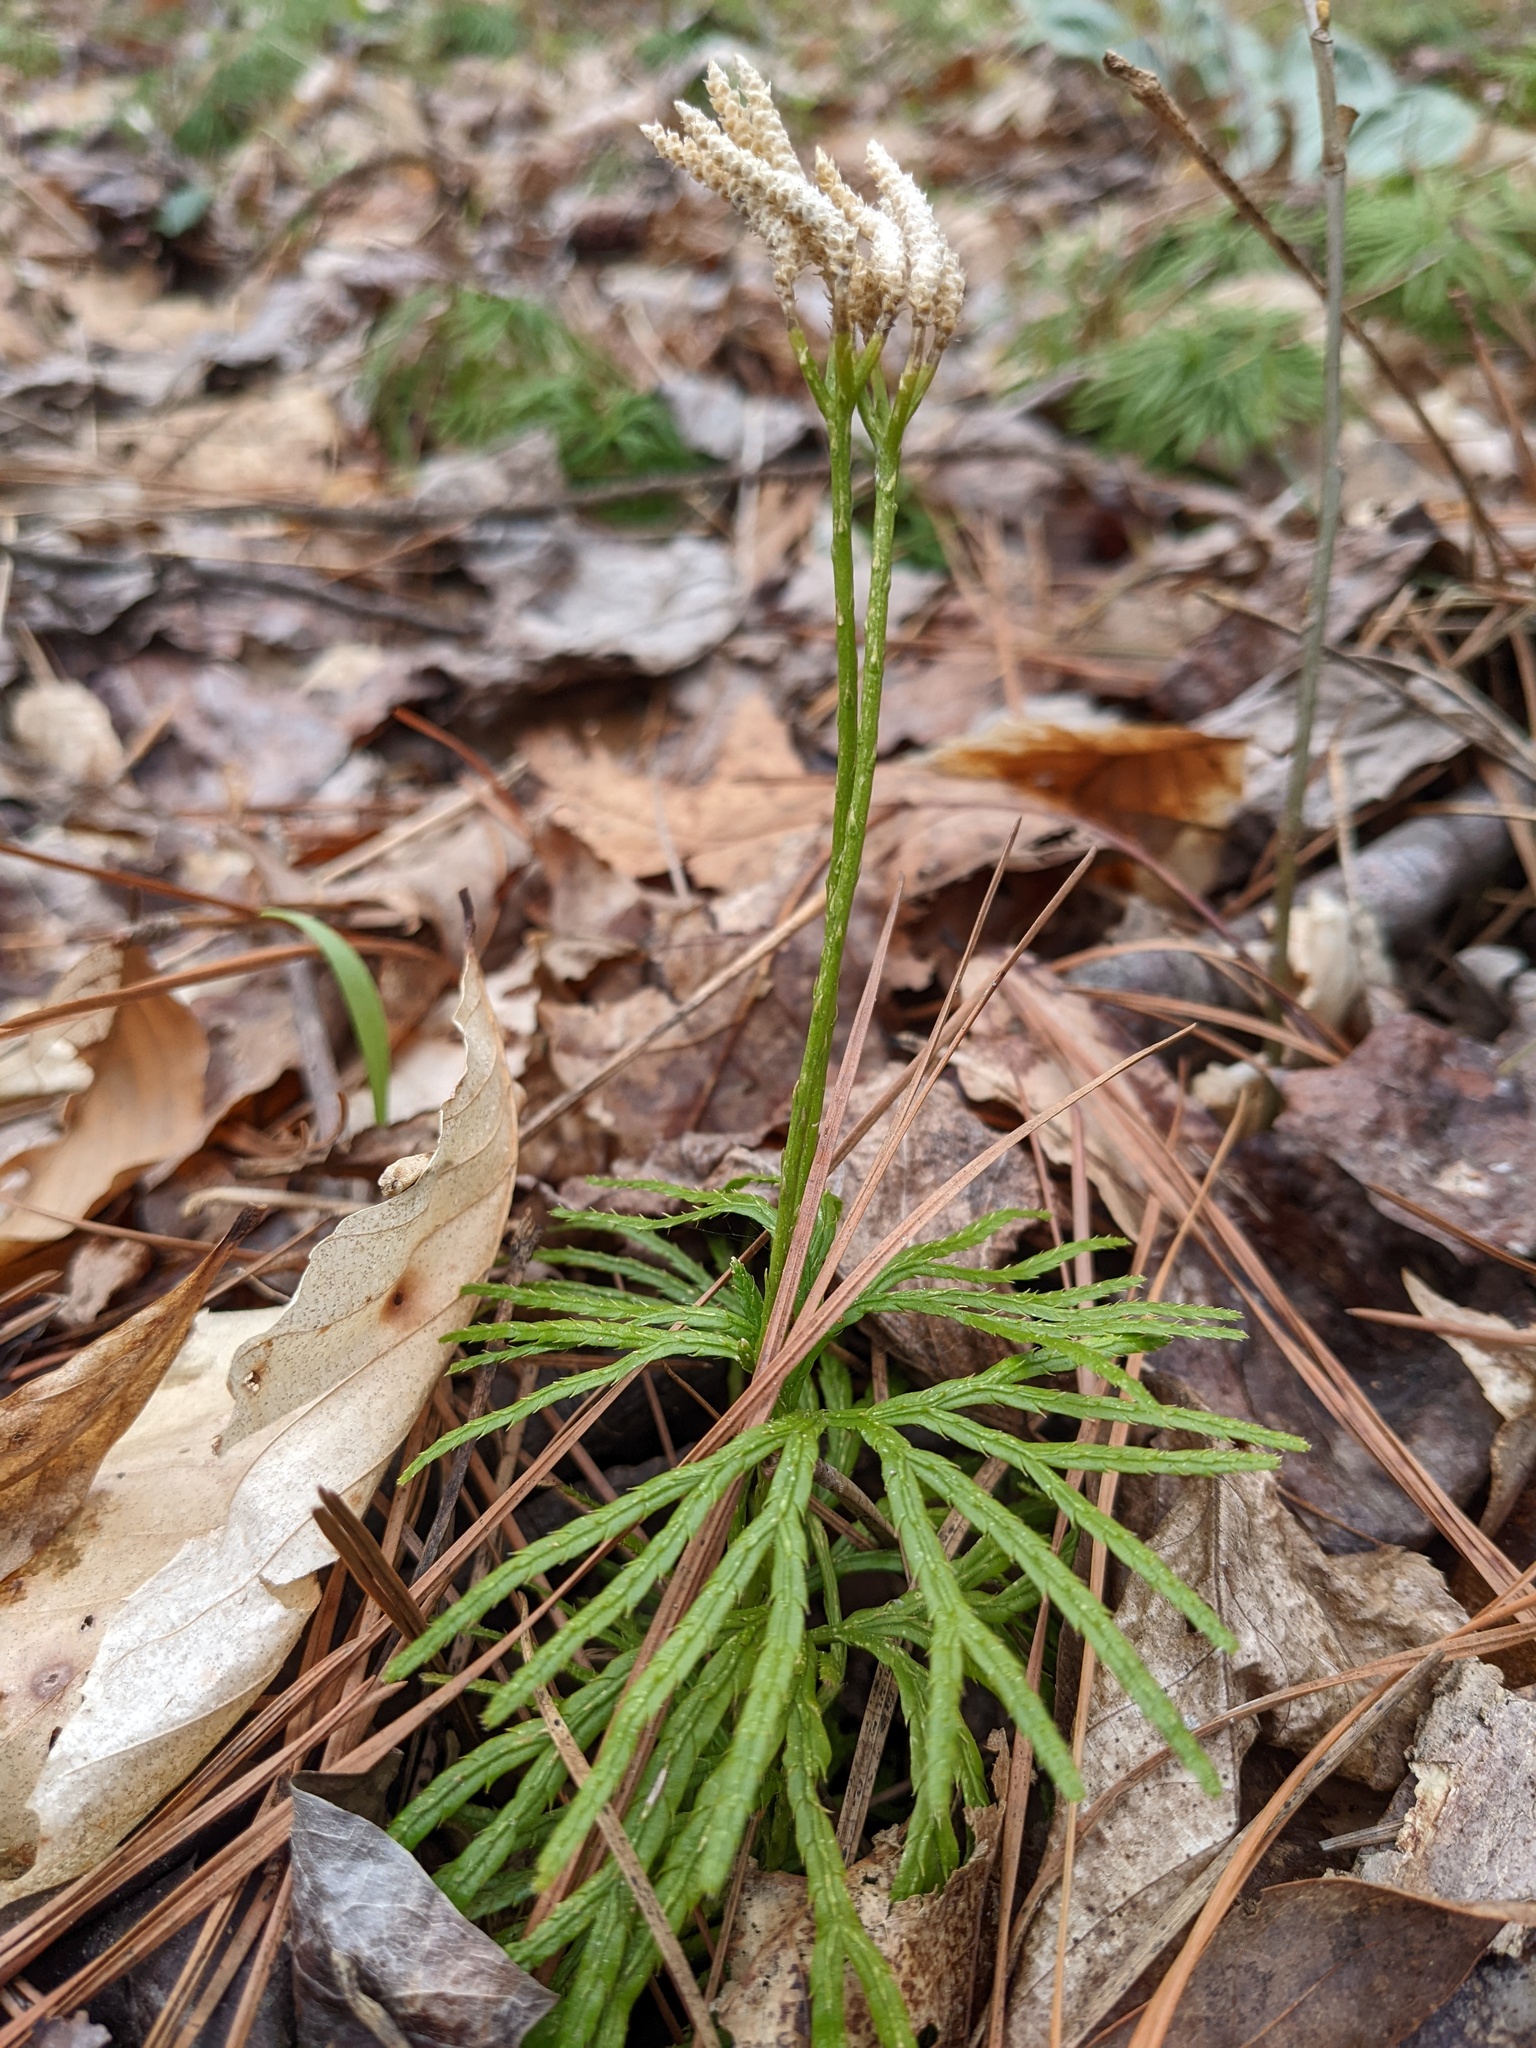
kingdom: Plantae
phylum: Tracheophyta
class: Lycopodiopsida
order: Lycopodiales
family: Lycopodiaceae
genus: Diphasiastrum
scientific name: Diphasiastrum digitatum
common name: Southern running-pine
